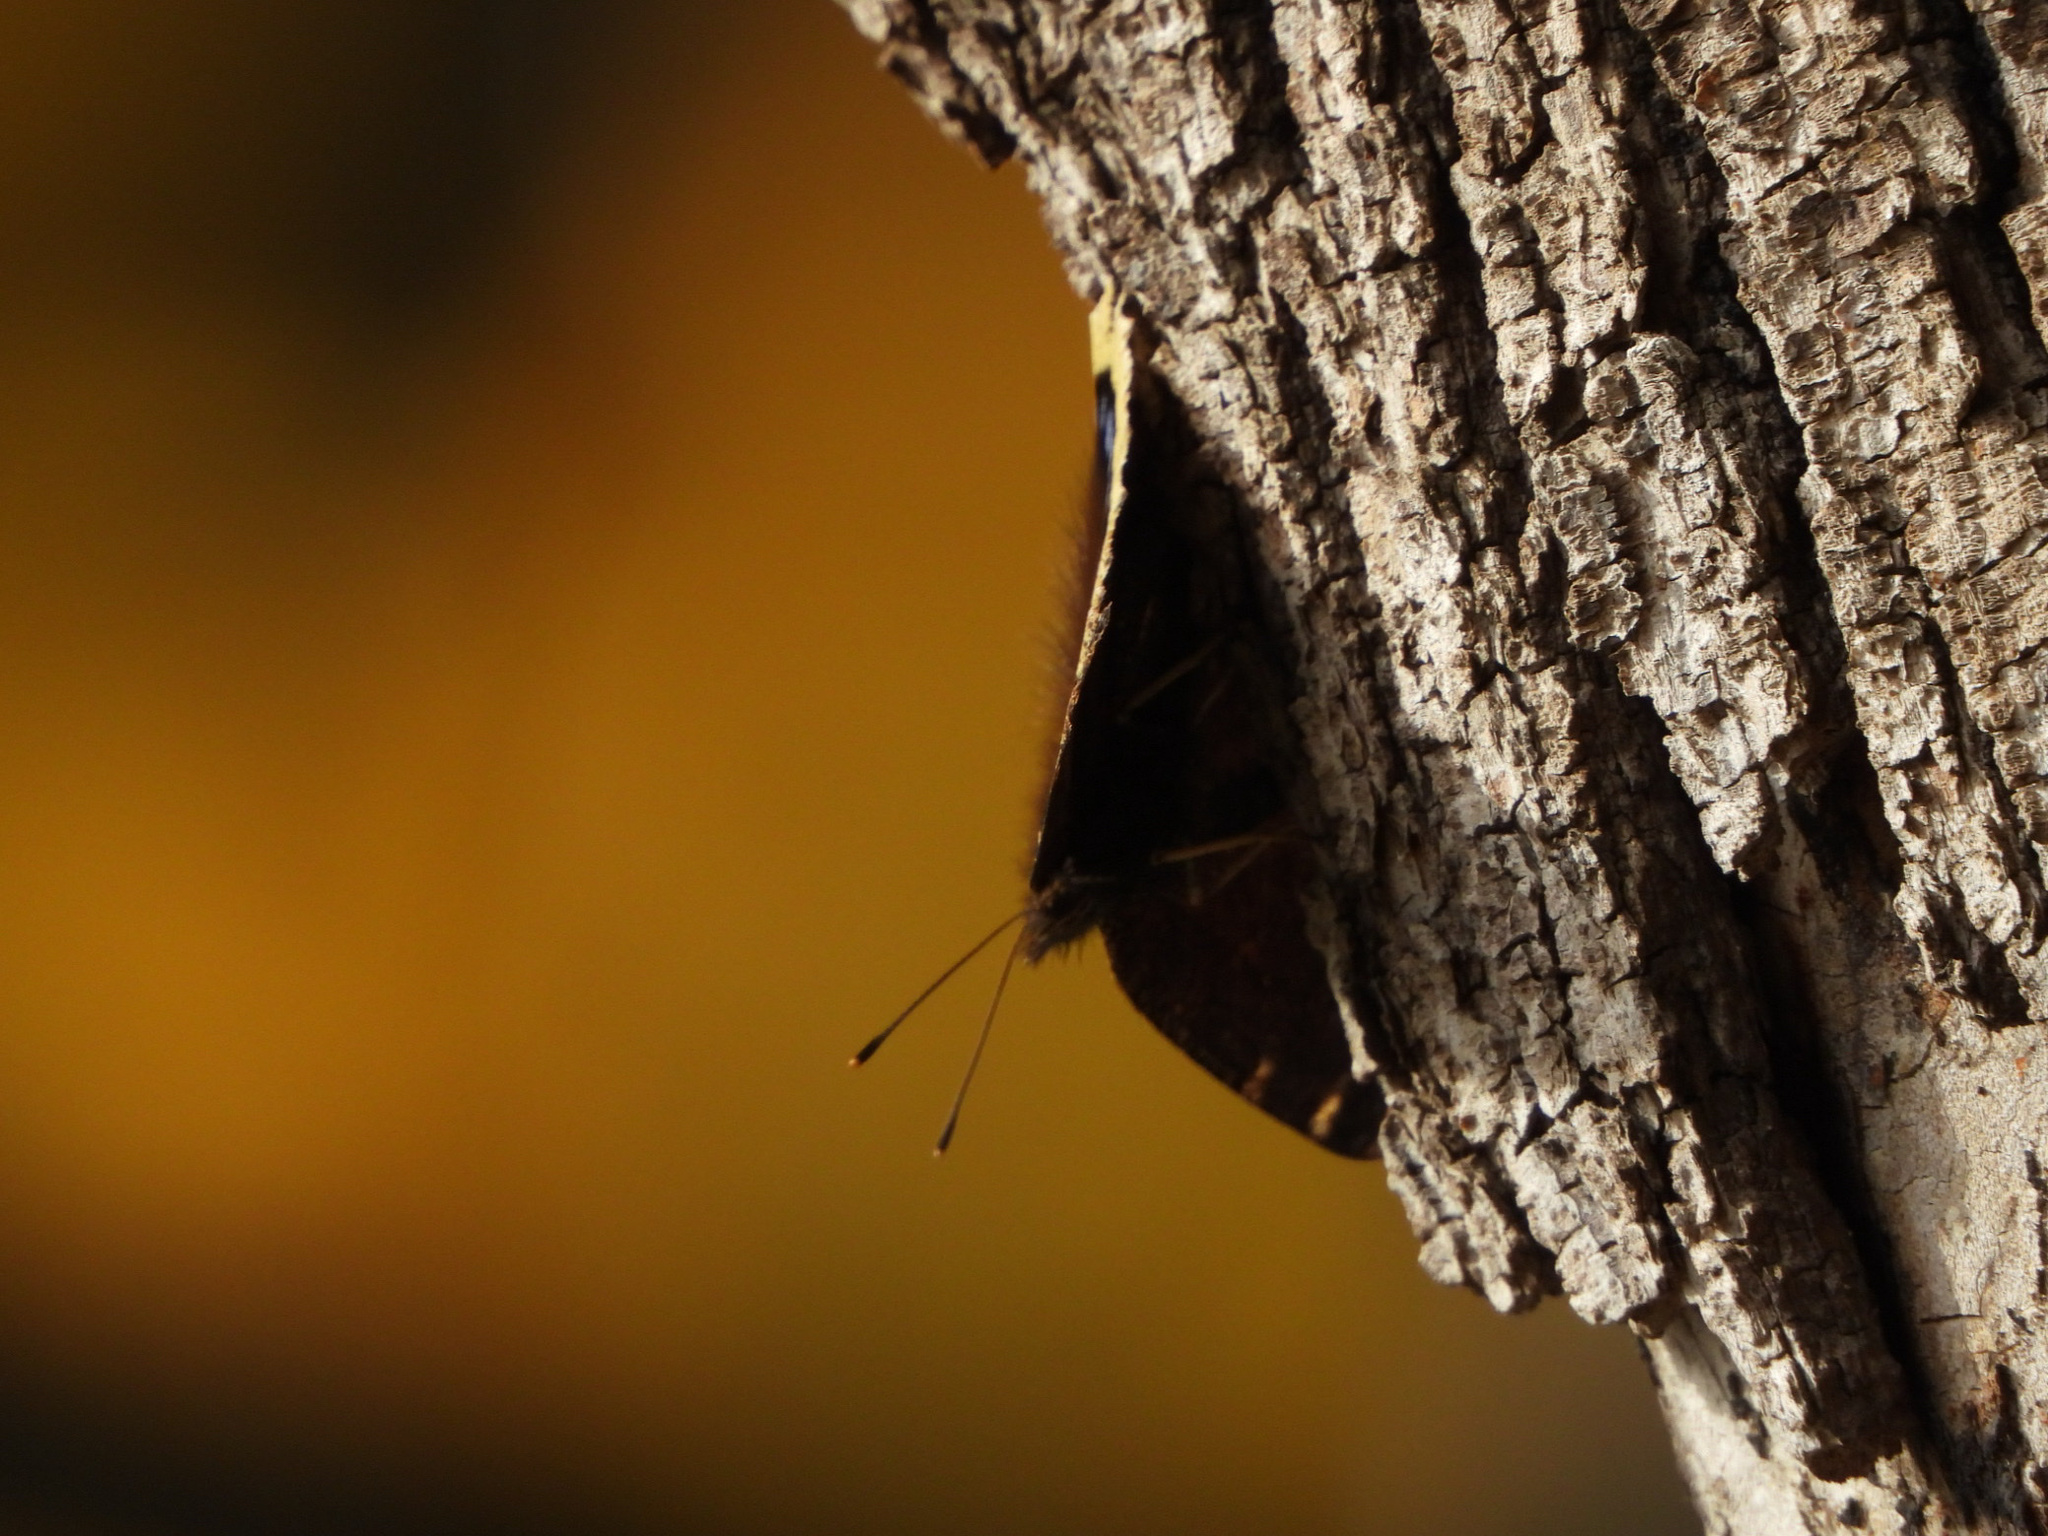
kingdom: Animalia
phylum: Arthropoda
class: Insecta
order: Lepidoptera
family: Nymphalidae
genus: Nymphalis
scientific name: Nymphalis antiopa
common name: Camberwell beauty
